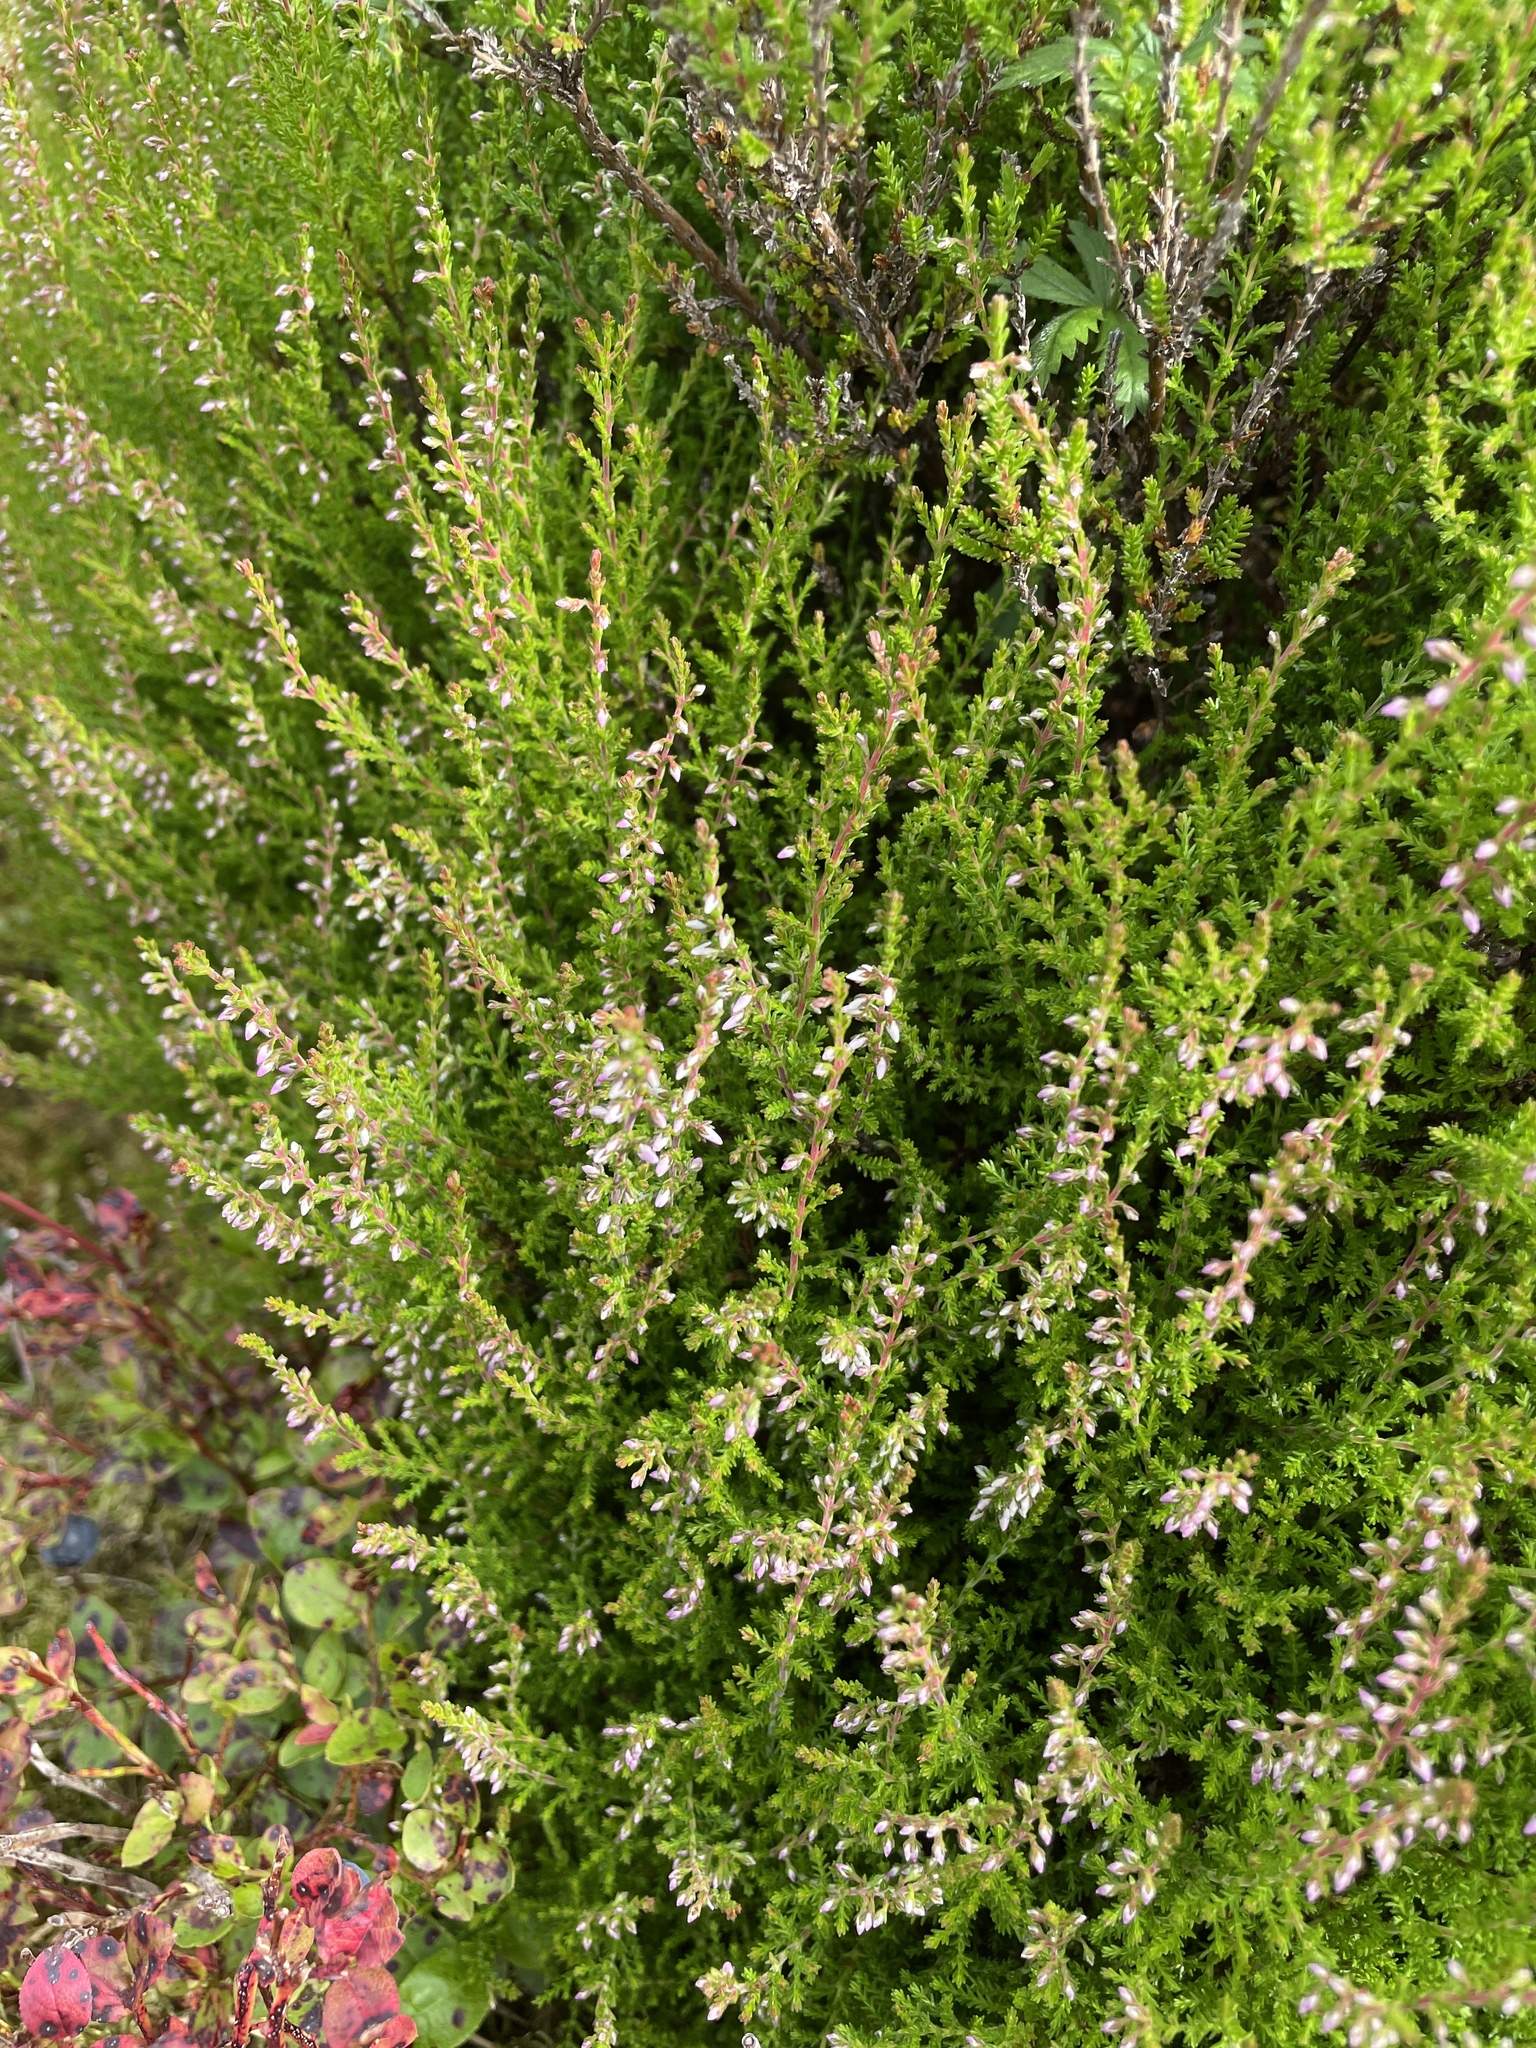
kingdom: Plantae
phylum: Tracheophyta
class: Magnoliopsida
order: Ericales
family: Ericaceae
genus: Calluna
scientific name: Calluna vulgaris
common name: Heather
